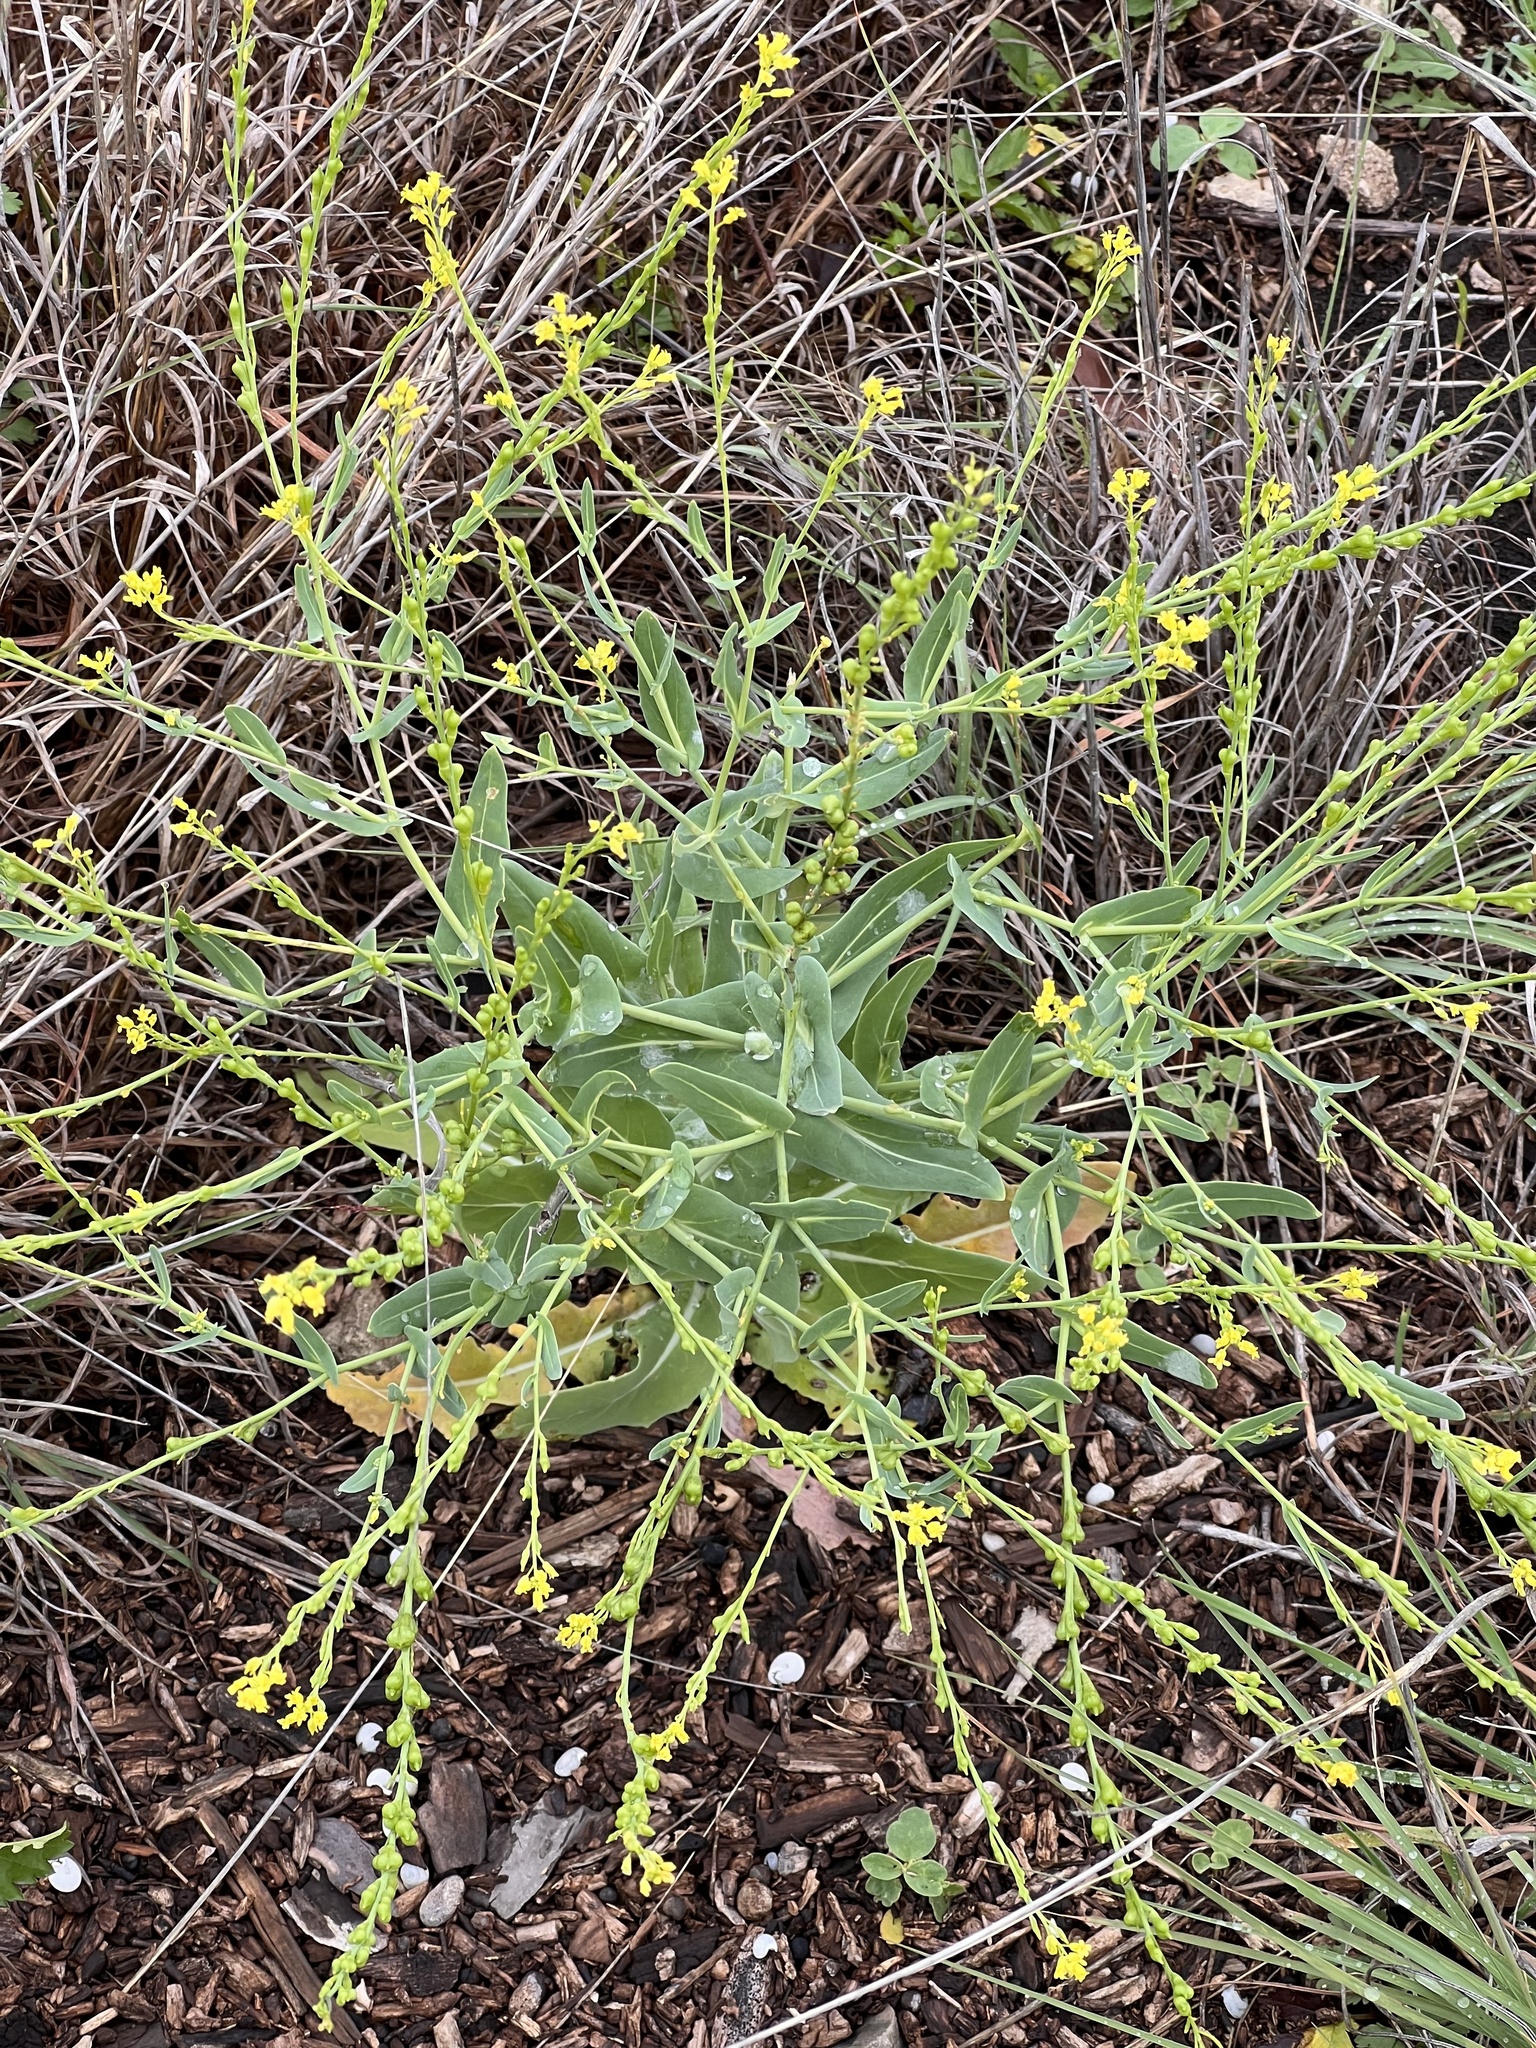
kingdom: Plantae
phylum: Tracheophyta
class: Magnoliopsida
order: Brassicales
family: Brassicaceae
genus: Myagrum
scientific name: Myagrum perfoliatum
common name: Mitre cress
